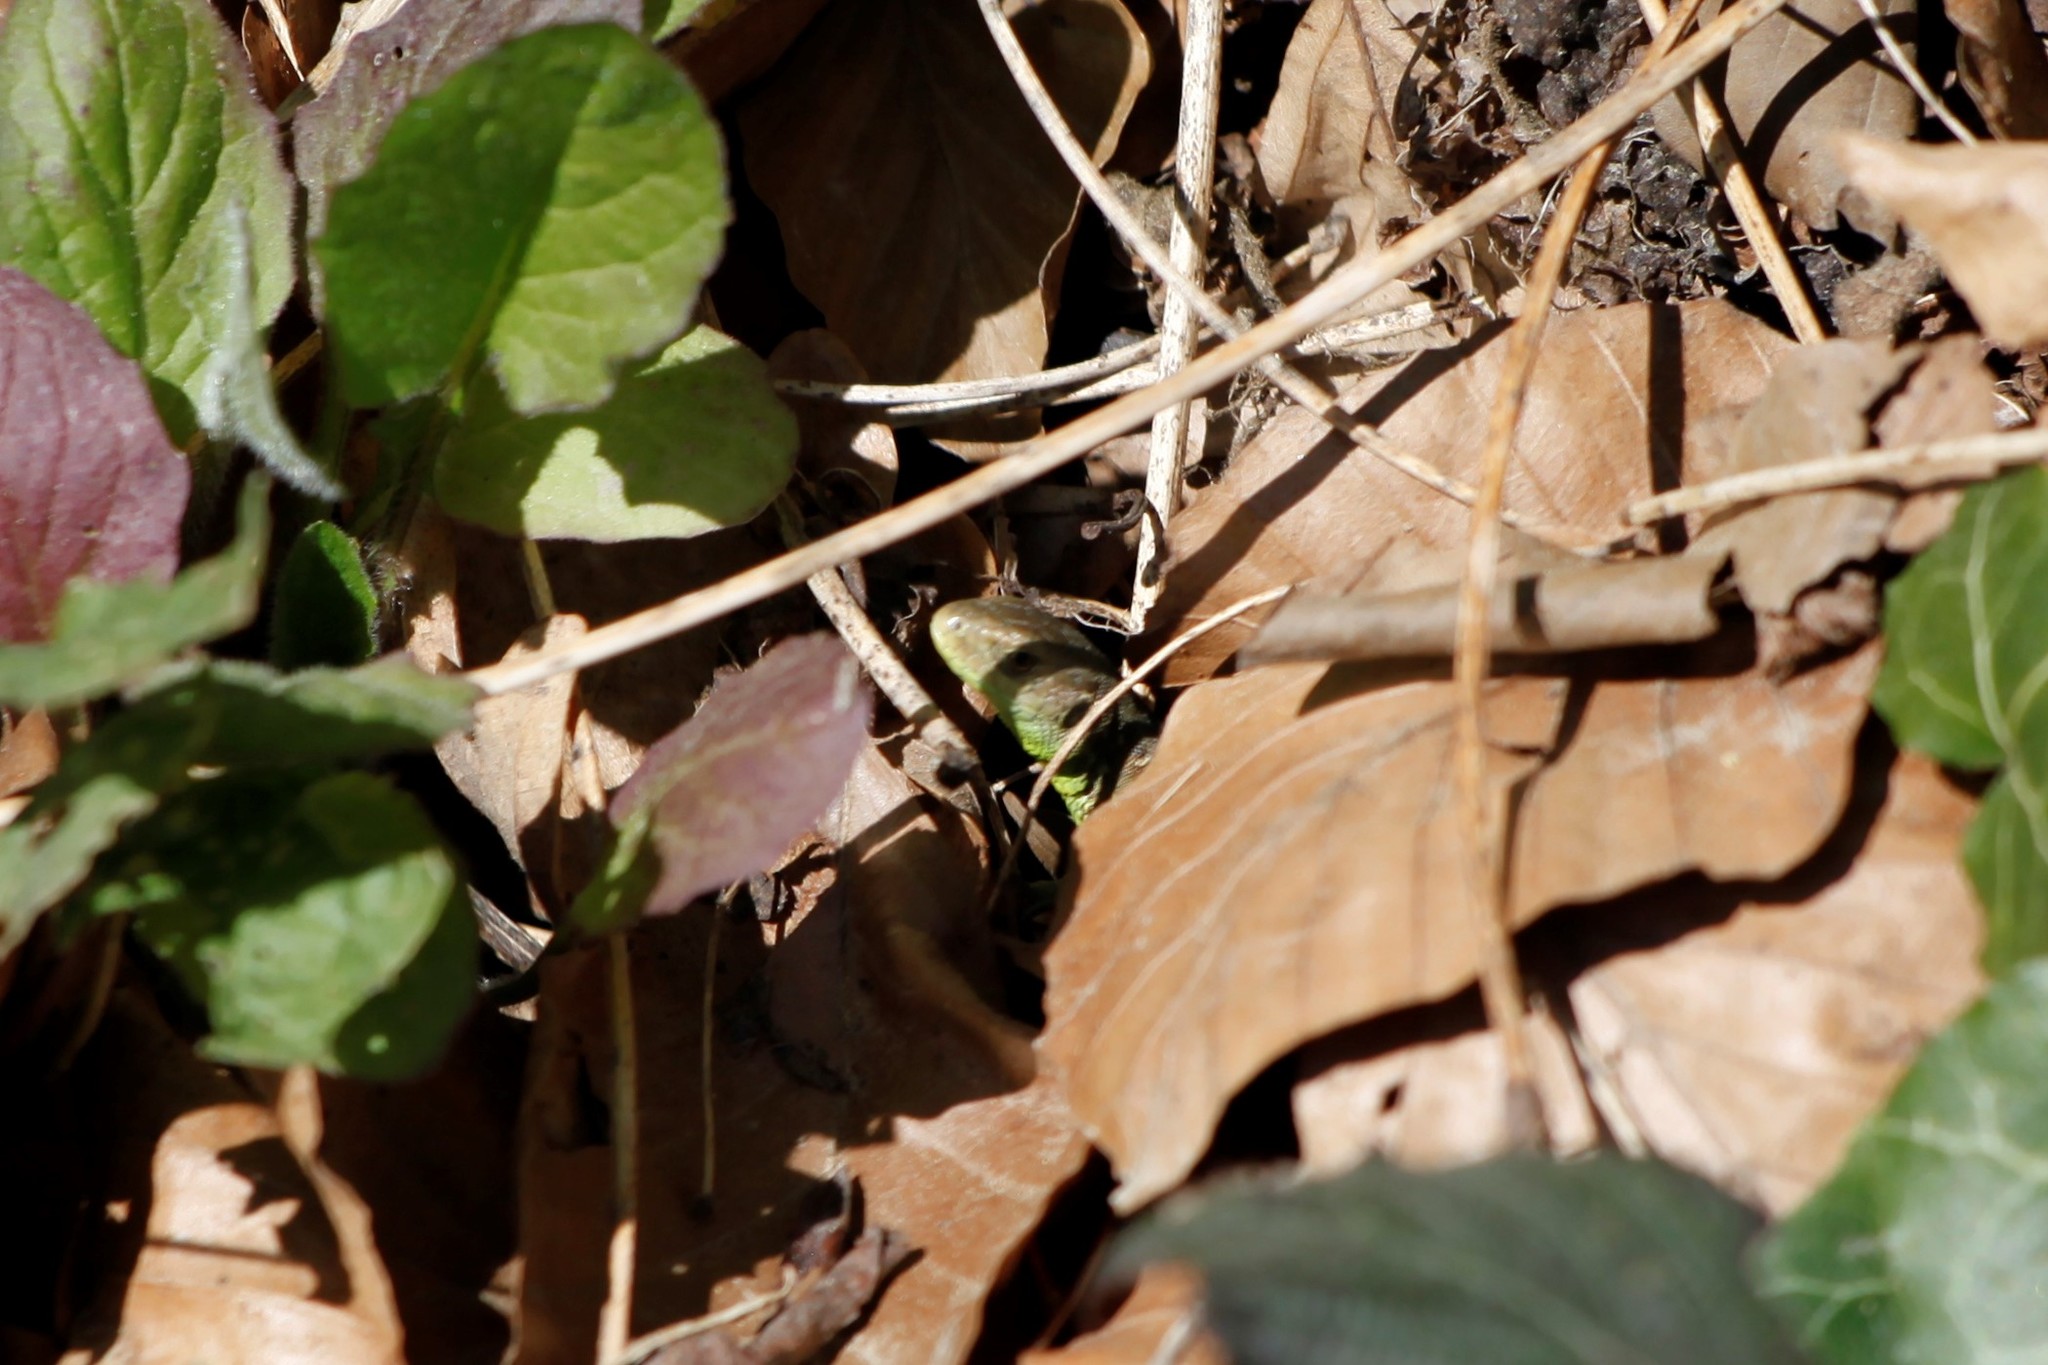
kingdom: Animalia
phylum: Chordata
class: Squamata
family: Lacertidae
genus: Lacerta
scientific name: Lacerta agilis
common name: Sand lizard
